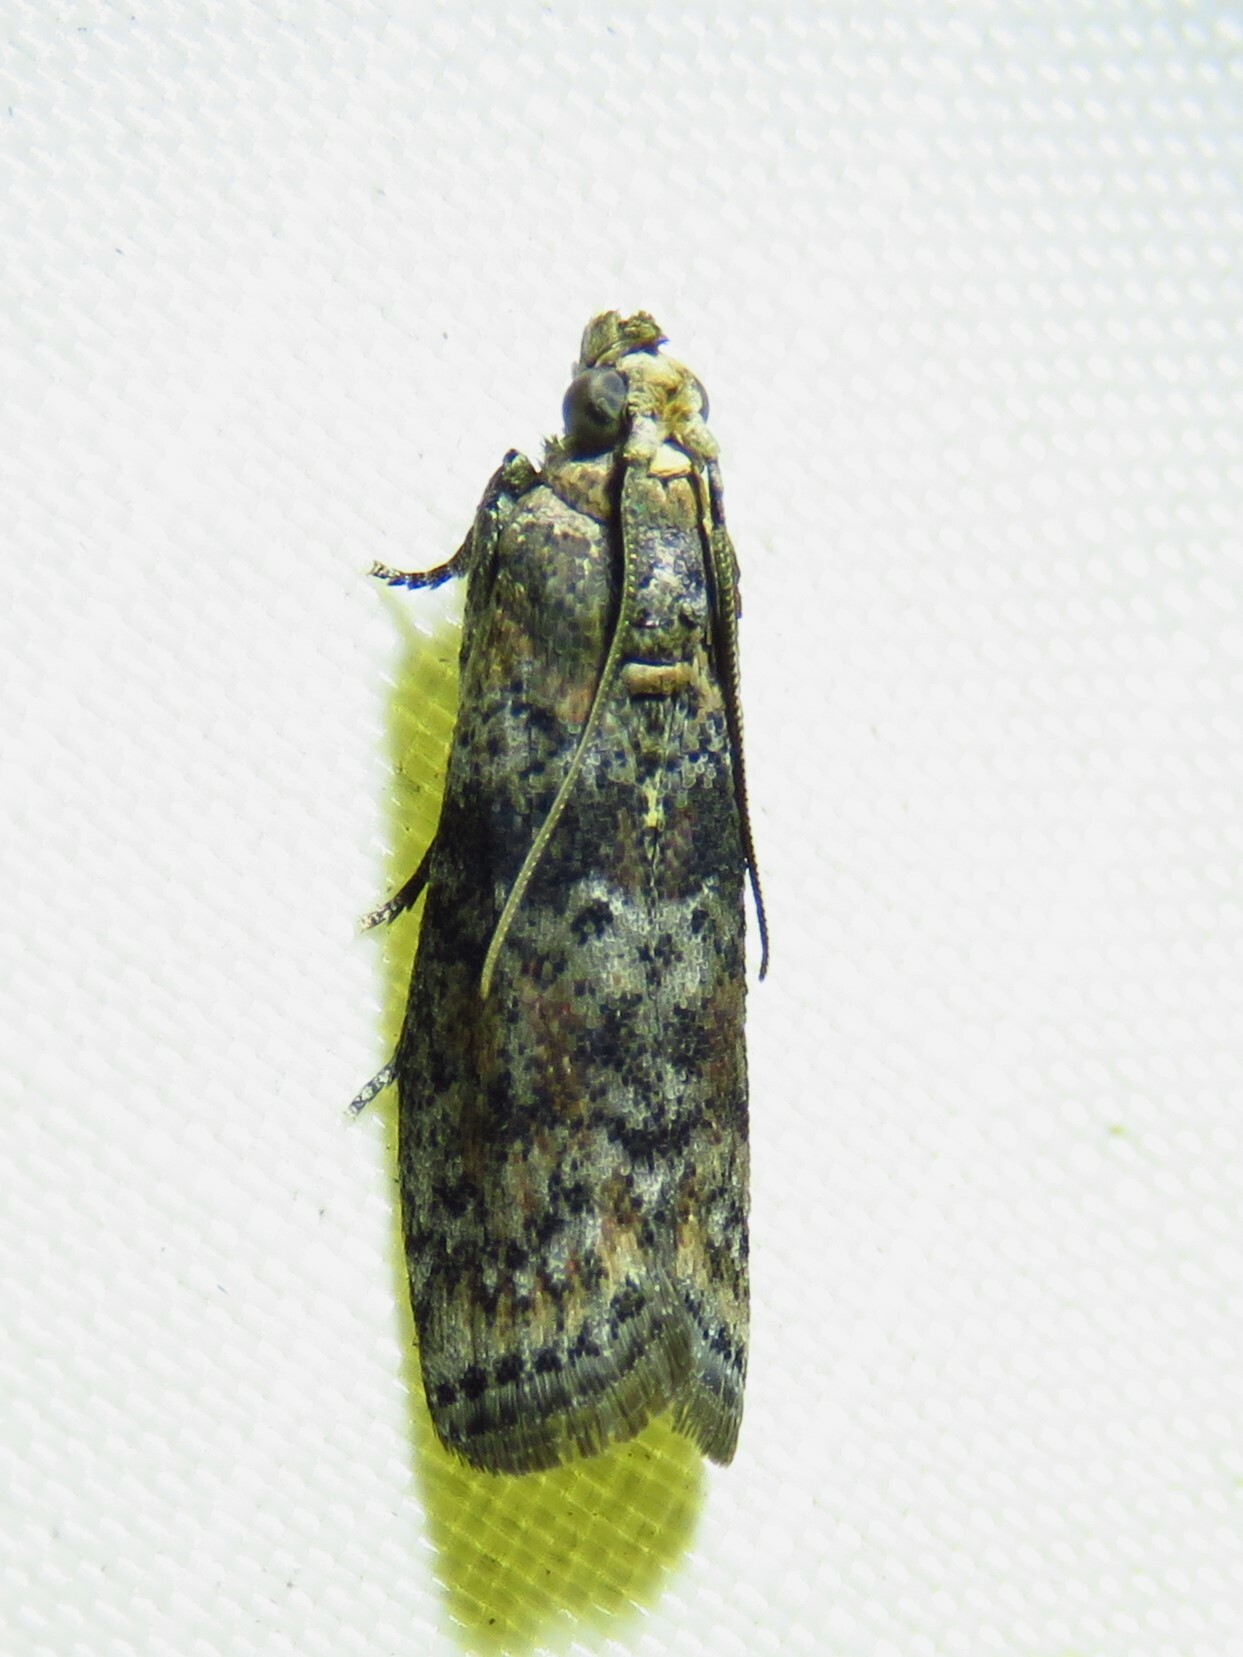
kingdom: Animalia
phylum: Arthropoda
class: Insecta
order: Lepidoptera
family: Pyralidae
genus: Sciota
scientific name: Sciota celtidella
